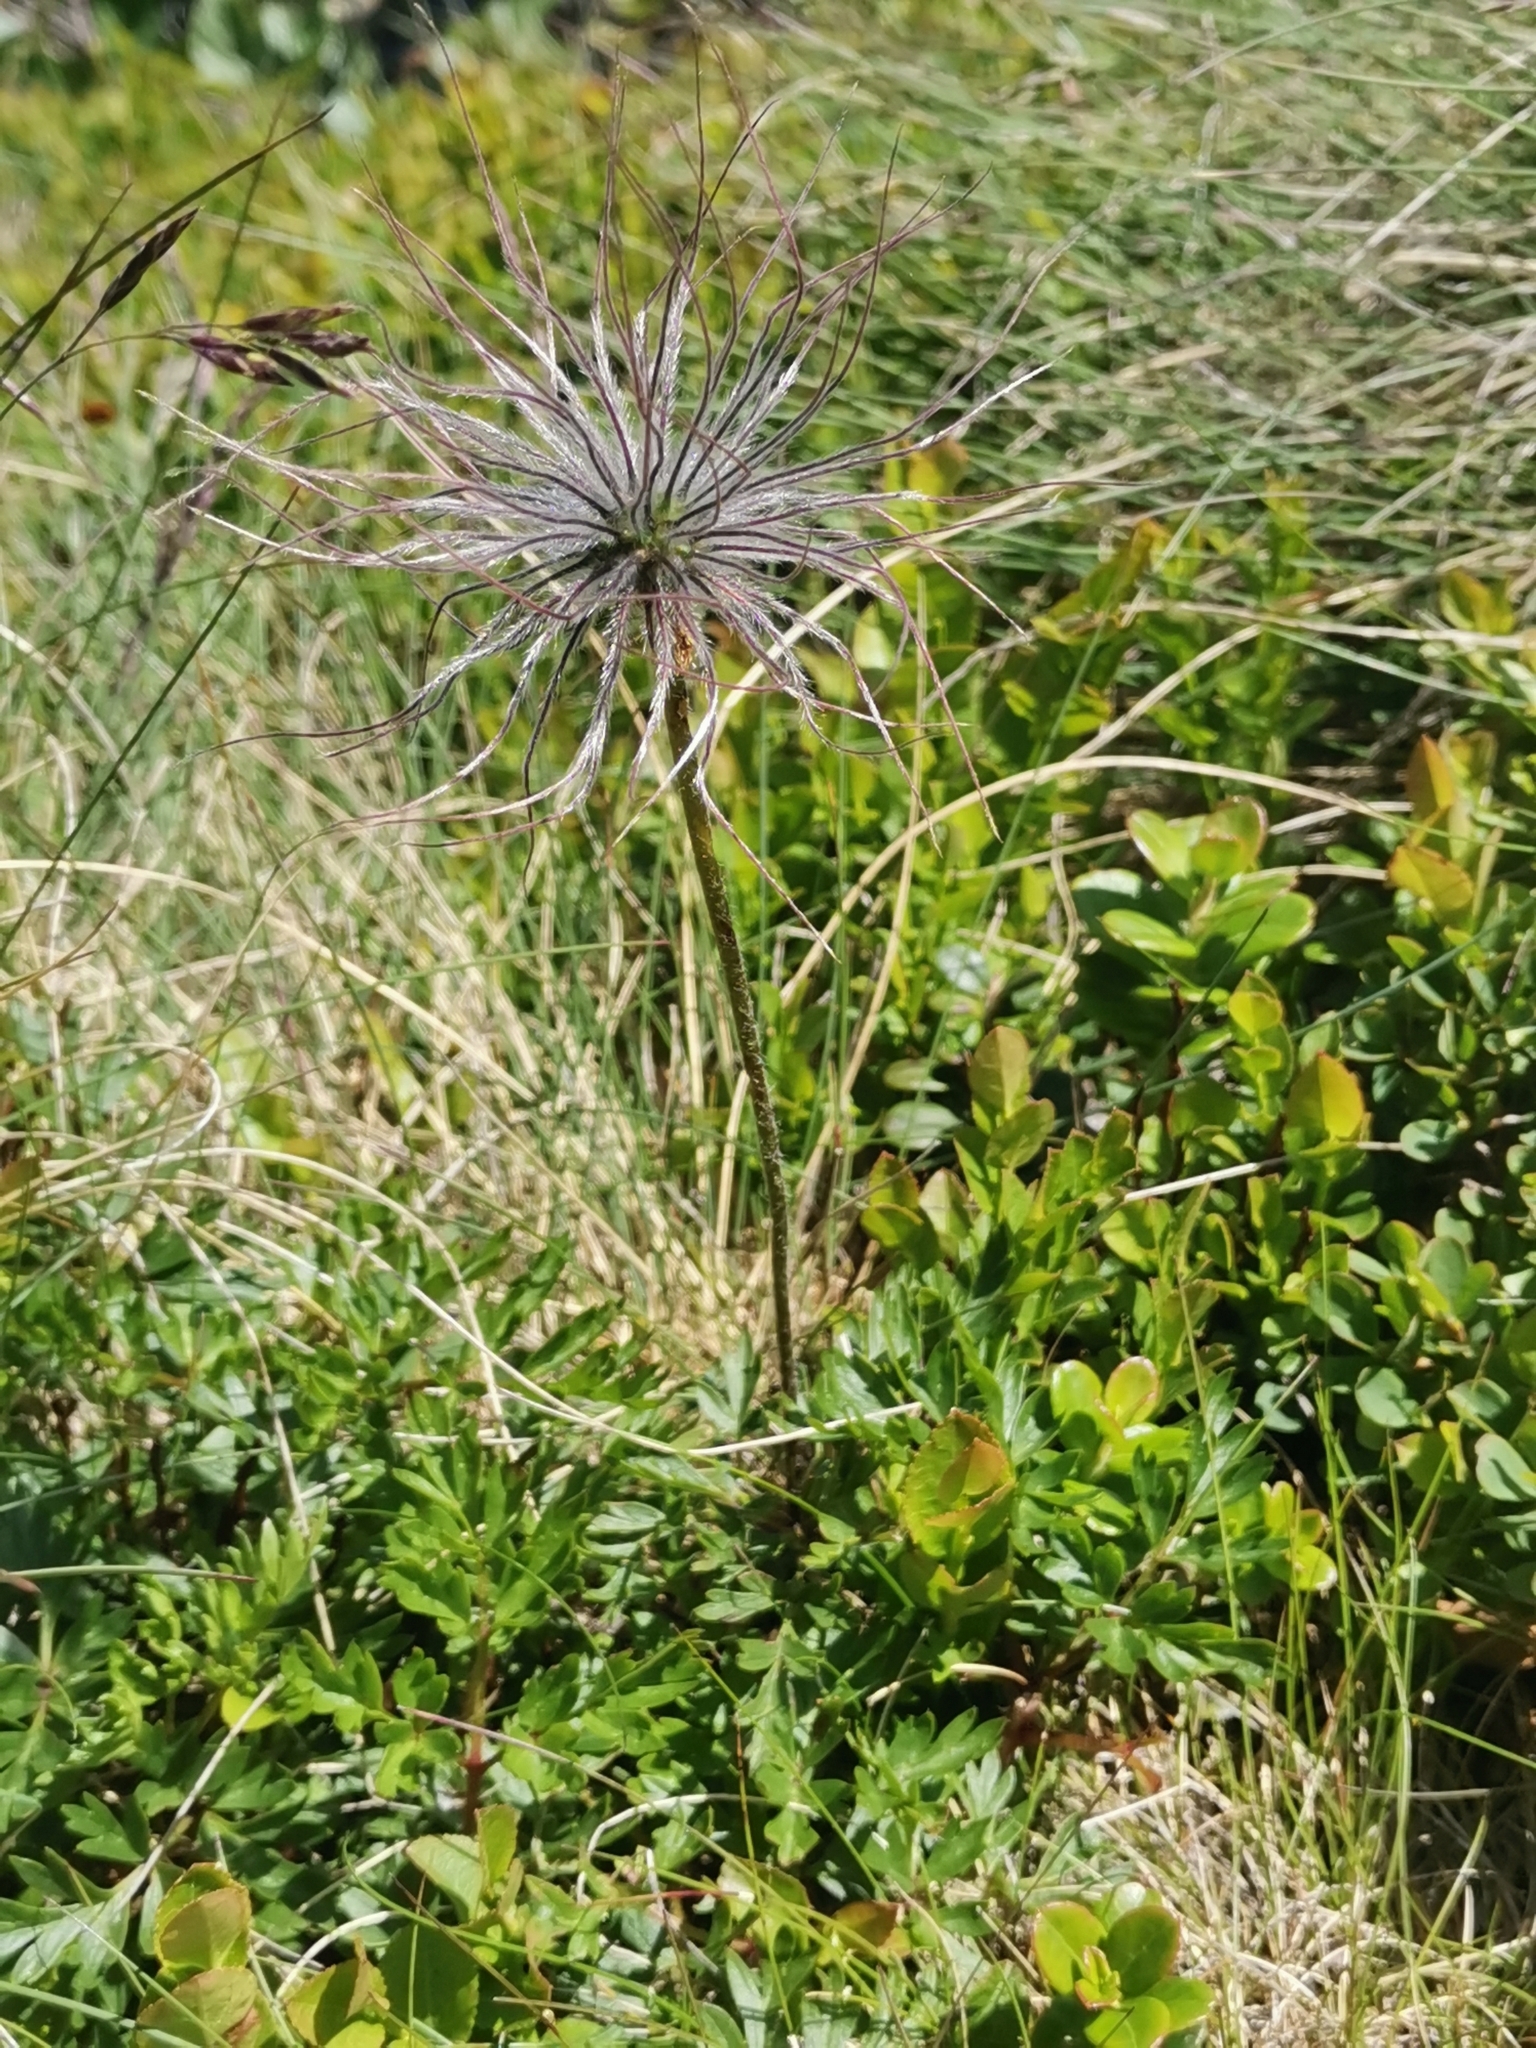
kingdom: Plantae
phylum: Tracheophyta
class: Magnoliopsida
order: Ranunculales
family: Ranunculaceae
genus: Pulsatilla
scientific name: Pulsatilla alpina
